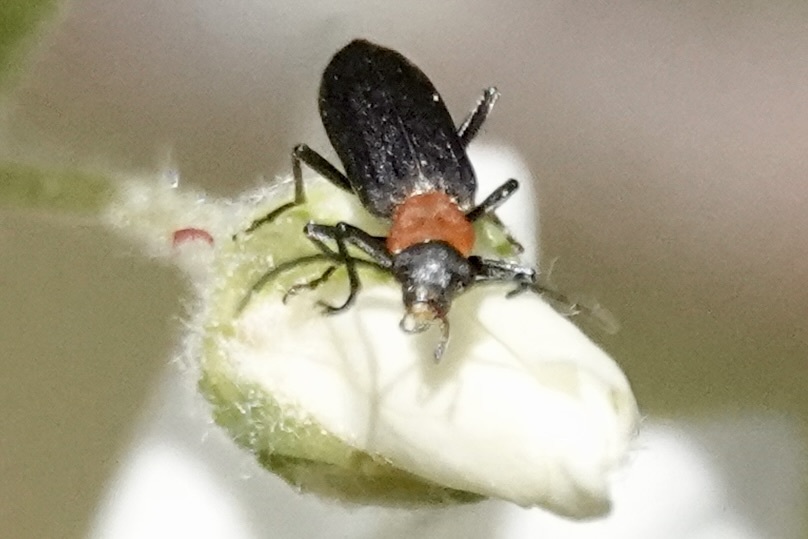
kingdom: Animalia
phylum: Arthropoda
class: Insecta
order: Coleoptera
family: Oedemeridae
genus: Ischnomera
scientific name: Ischnomera
